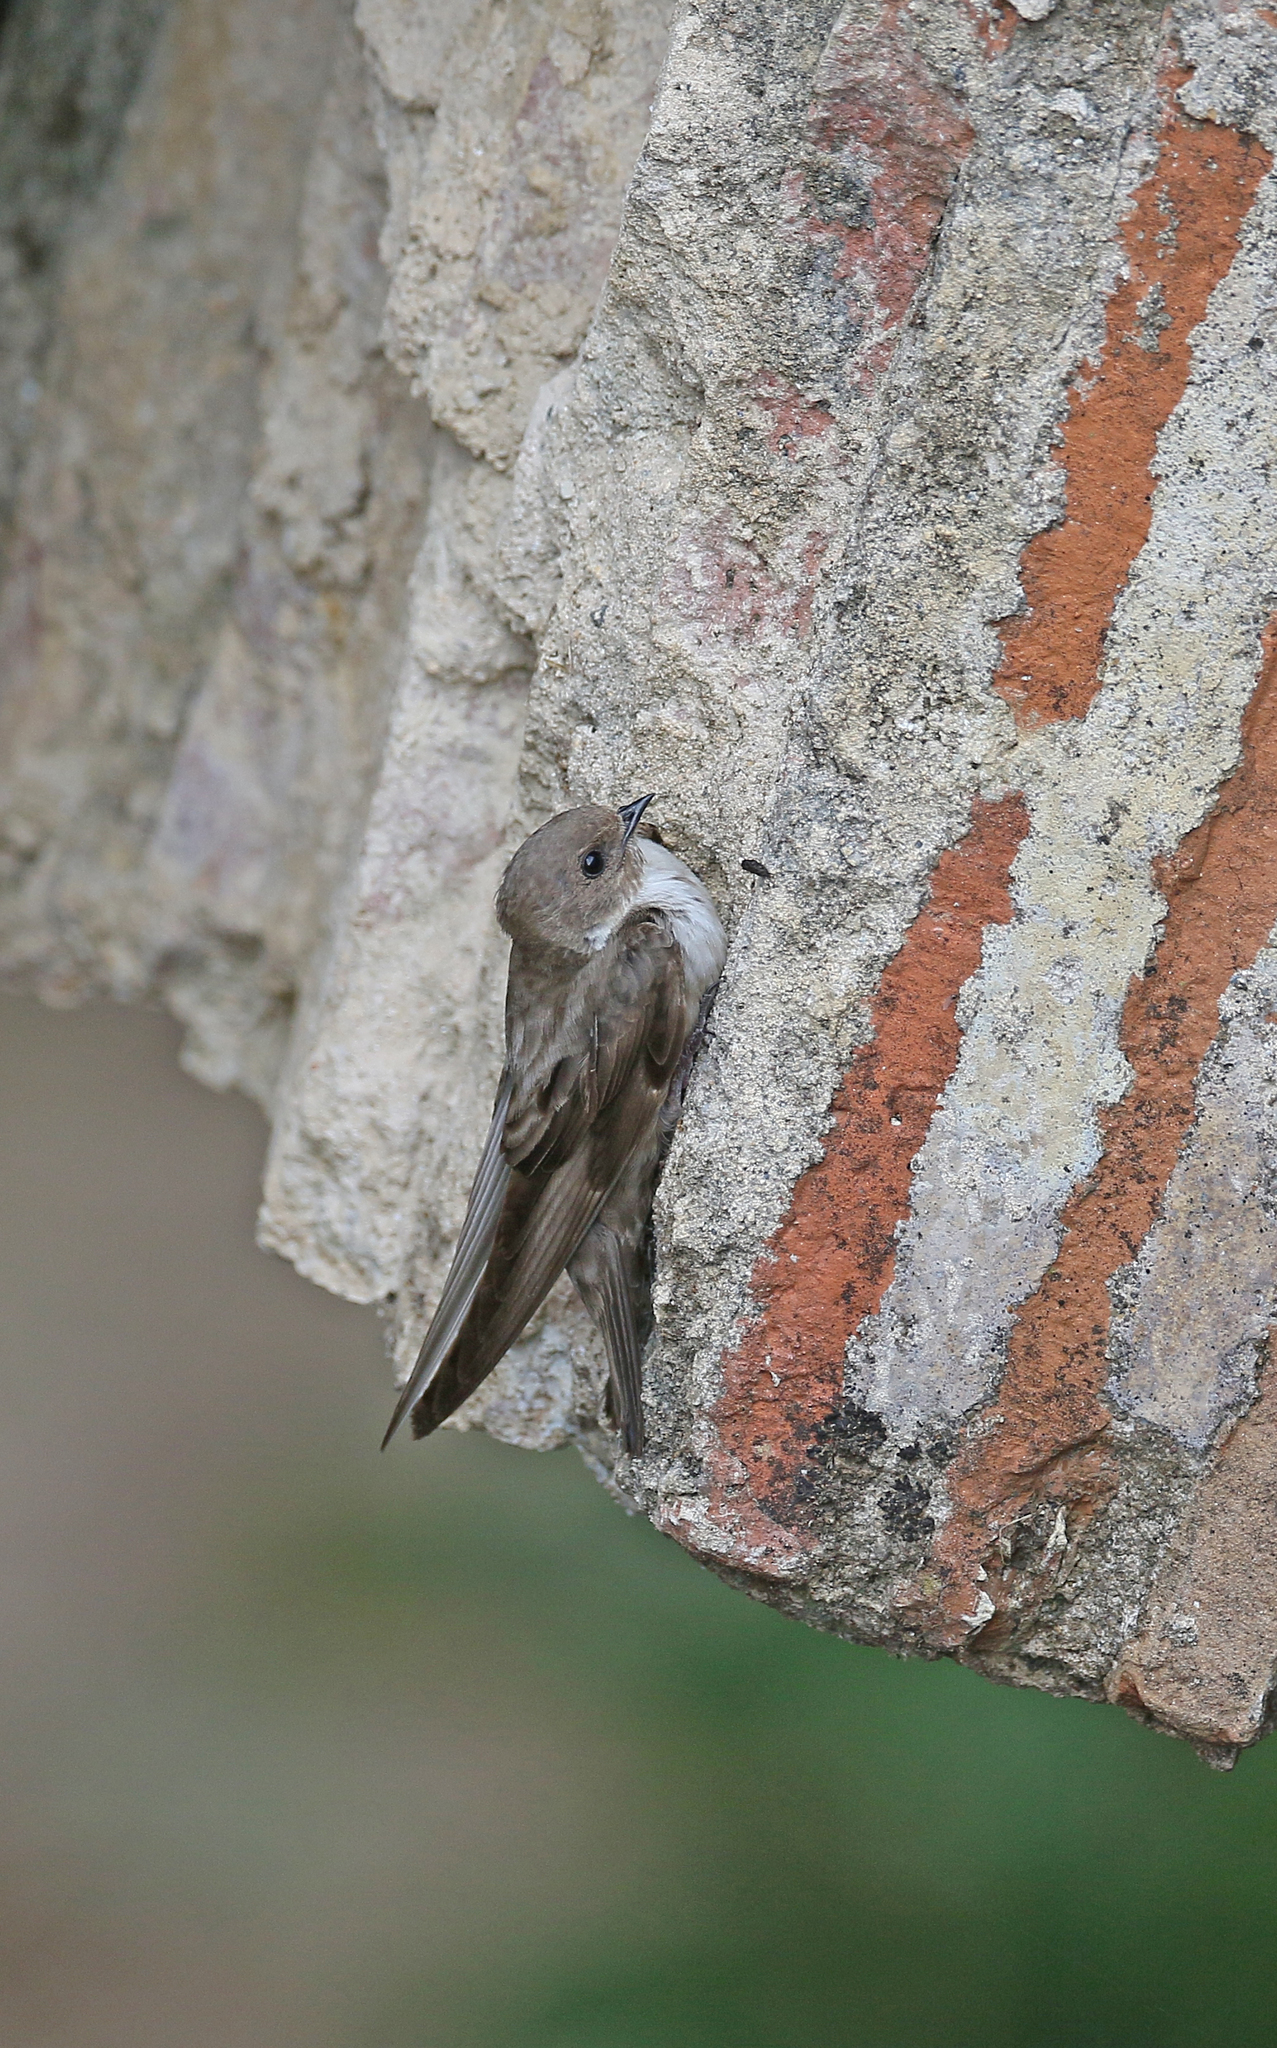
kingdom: Animalia
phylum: Chordata
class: Aves
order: Passeriformes
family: Hirundinidae
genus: Ptyonoprogne
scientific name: Ptyonoprogne rupestris
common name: Eurasian crag martin
